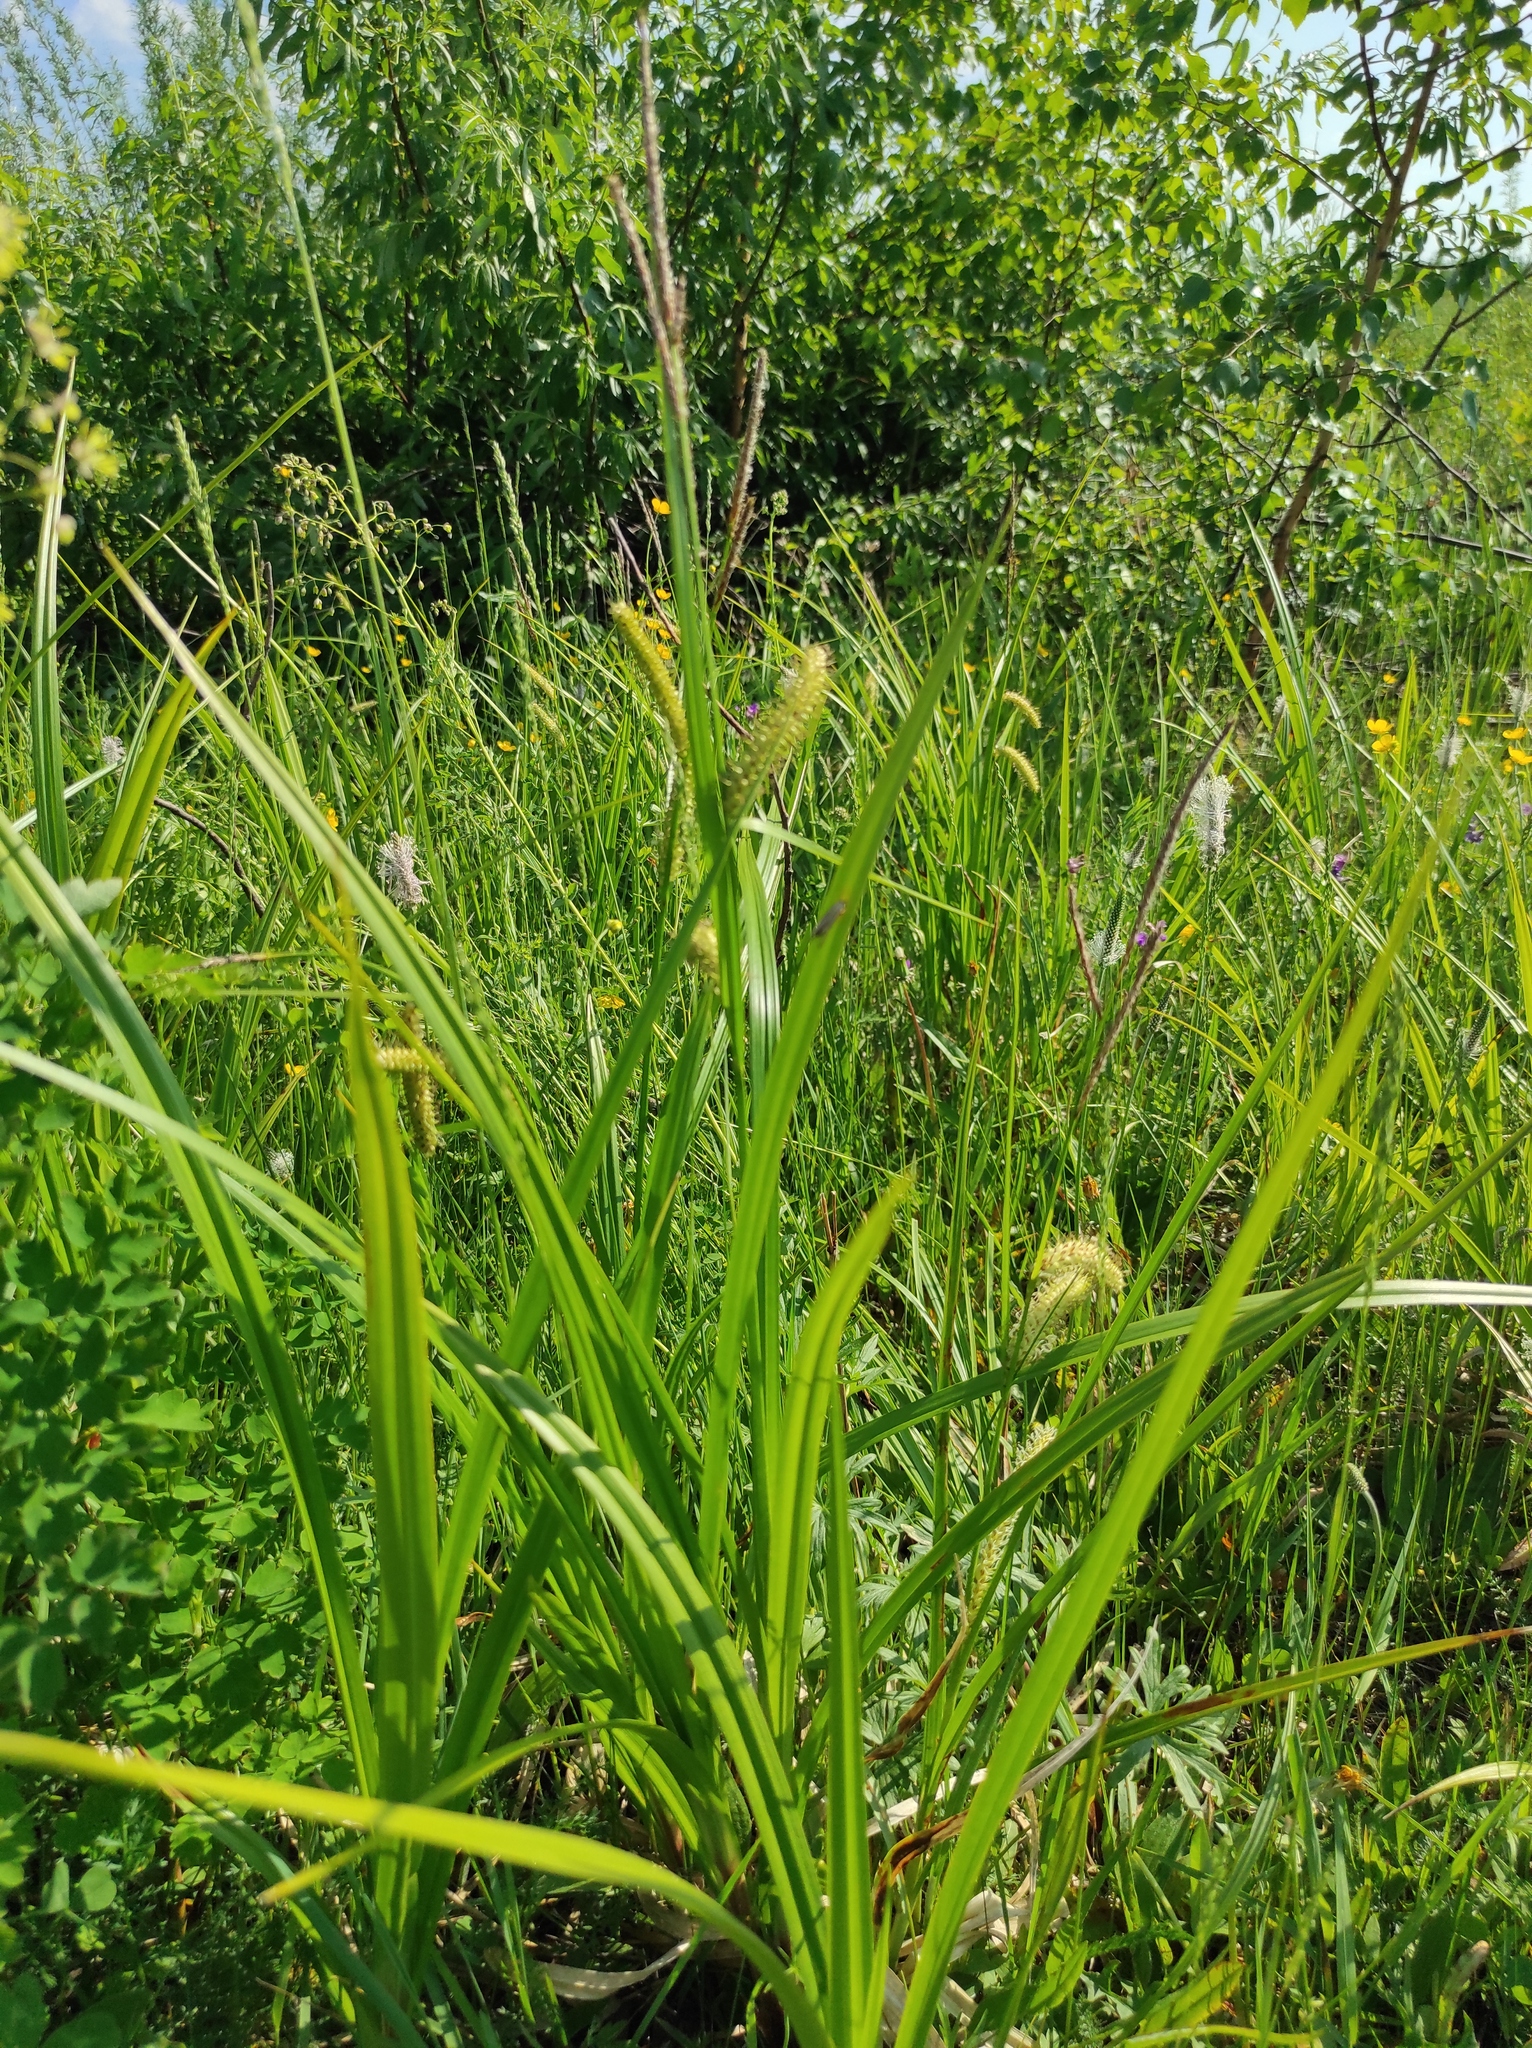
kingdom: Plantae
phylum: Tracheophyta
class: Liliopsida
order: Poales
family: Cyperaceae
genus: Carex
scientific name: Carex utriculata
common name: Beaked sedge
